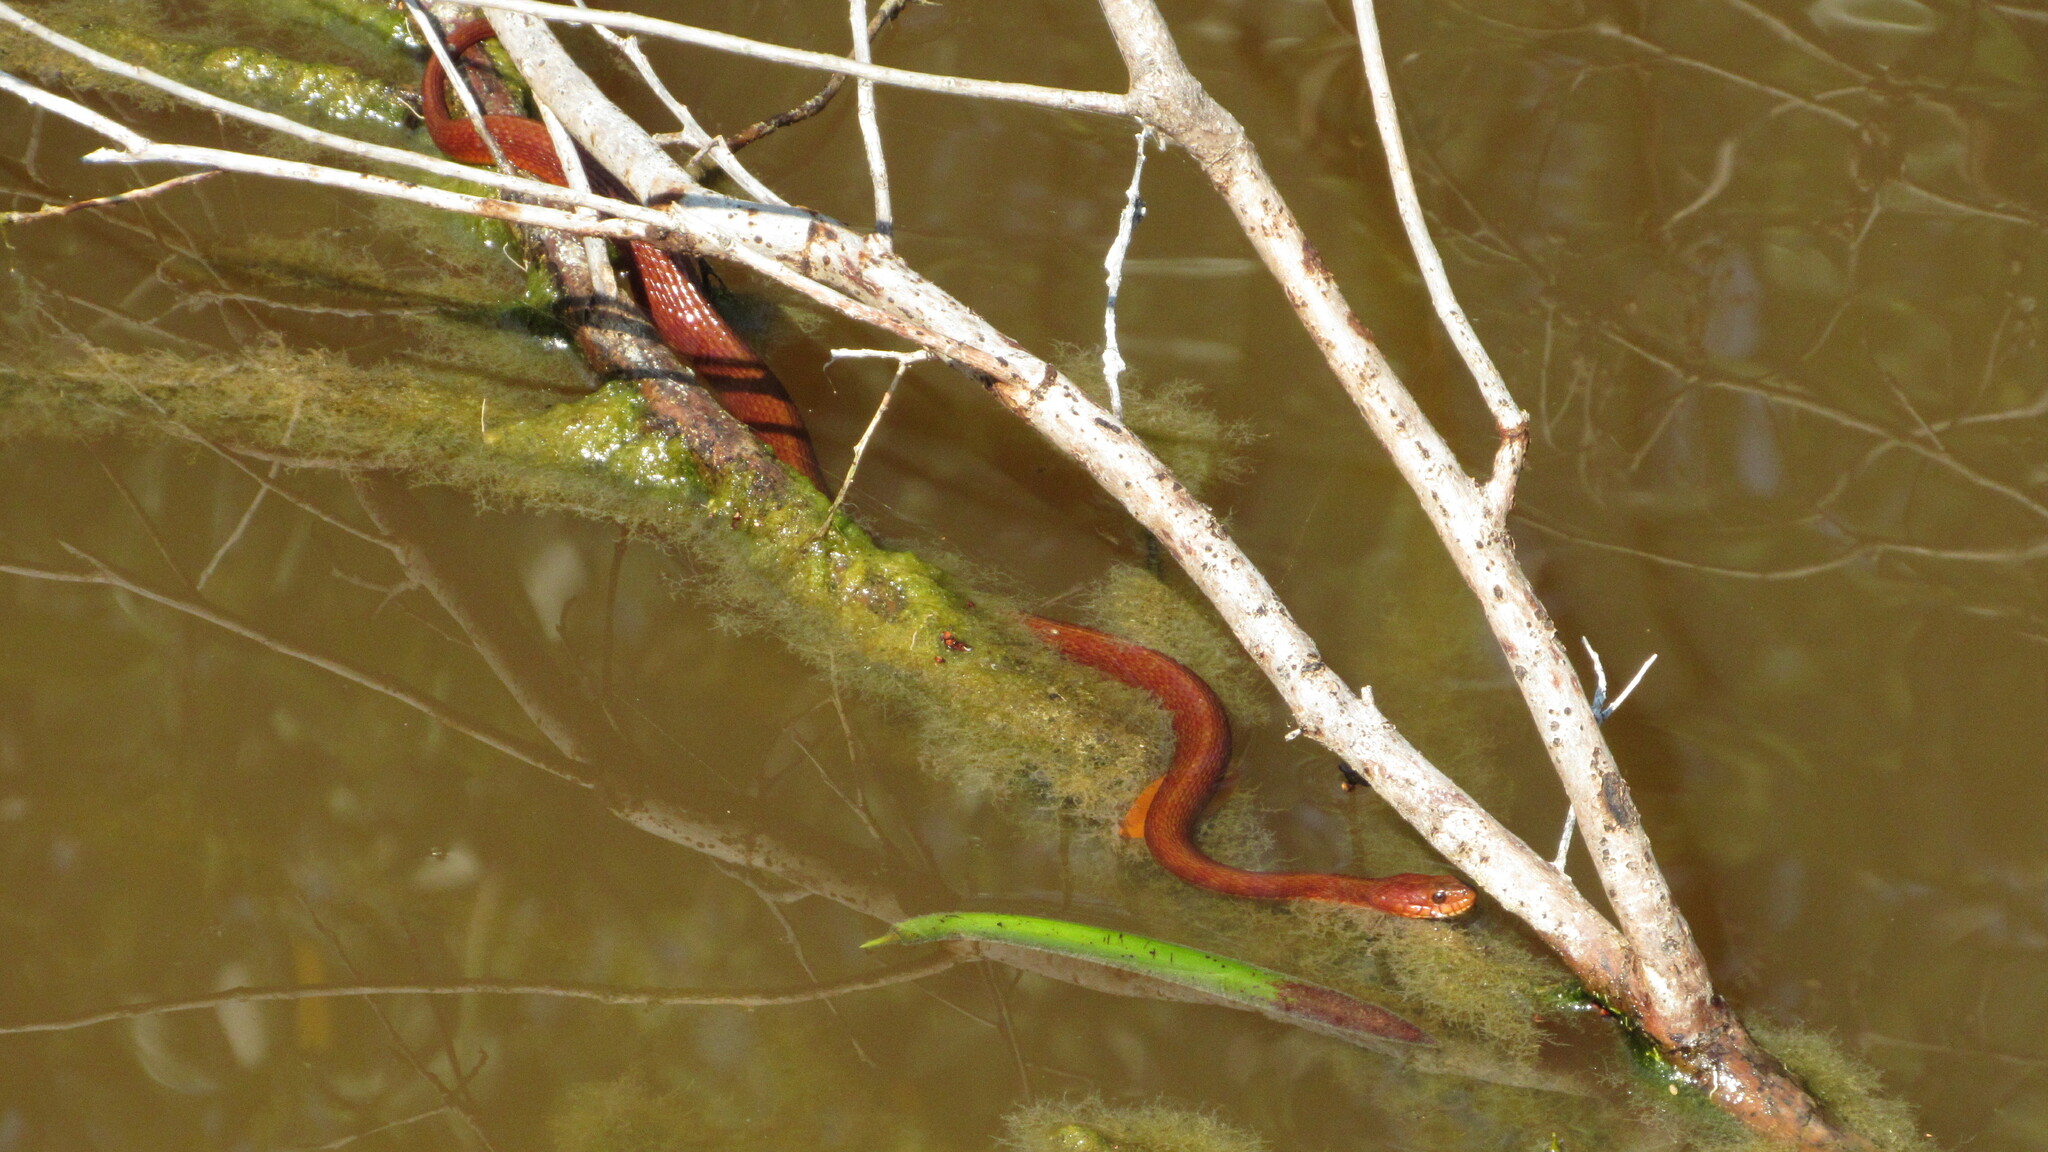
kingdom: Animalia
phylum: Chordata
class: Squamata
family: Colubridae
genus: Nerodia
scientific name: Nerodia clarkii
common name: Atlantic saltmarsh snake
